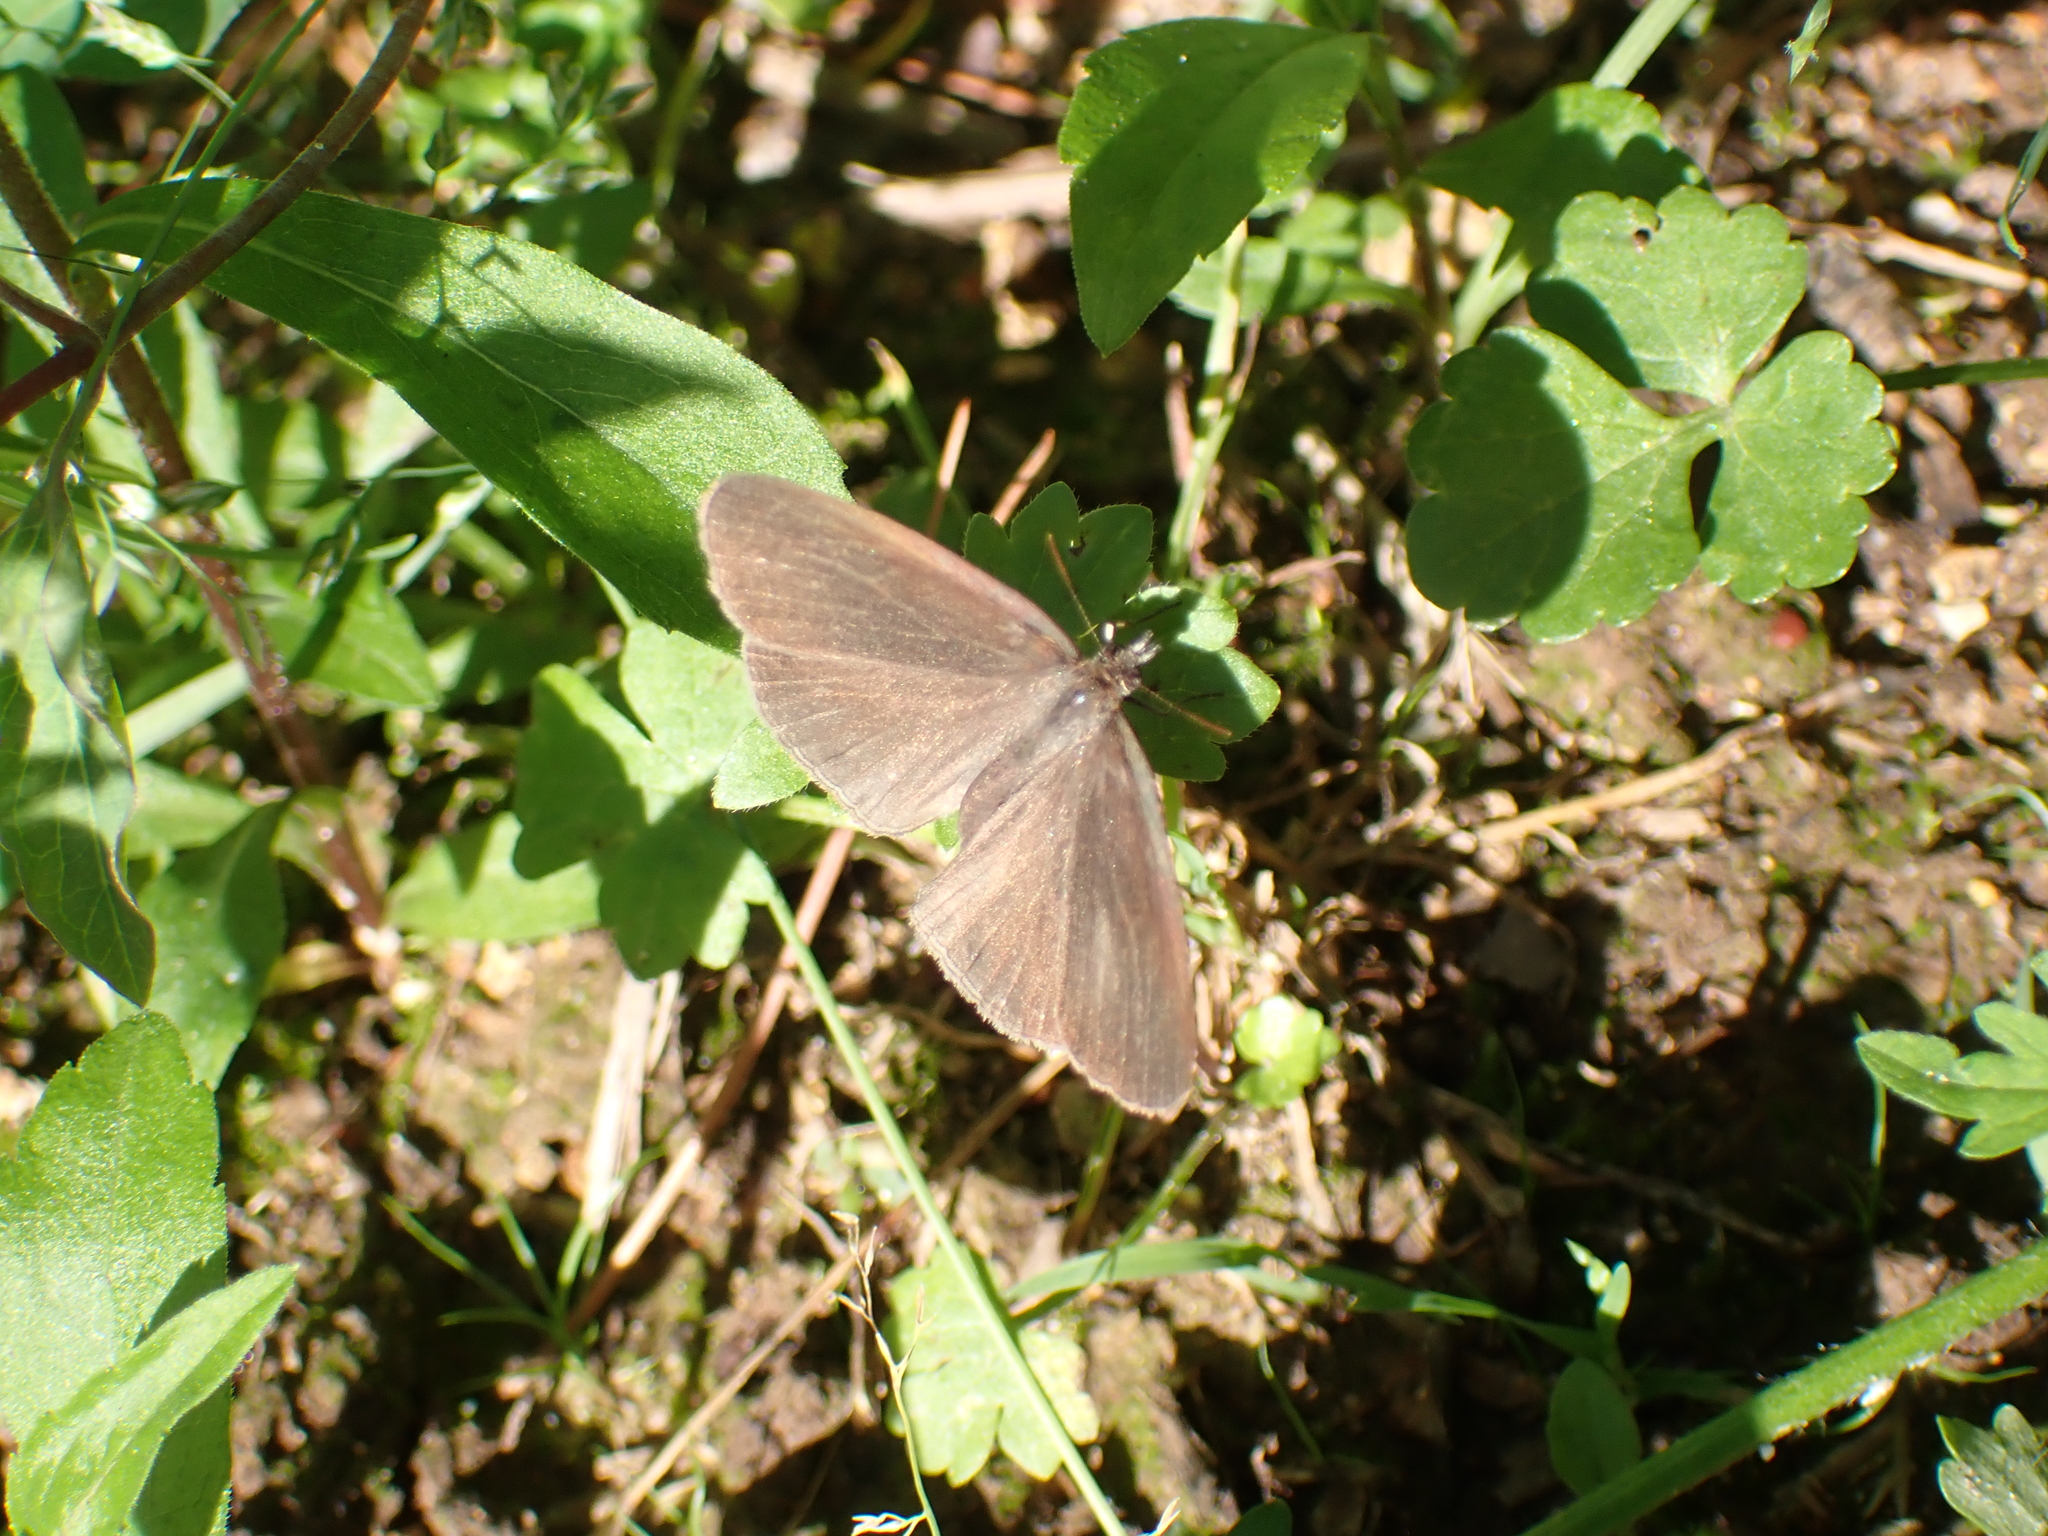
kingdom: Animalia
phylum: Arthropoda
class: Insecta
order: Lepidoptera
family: Nymphalidae
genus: Hermeuptychia
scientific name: Hermeuptychia hermes
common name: Hermes satyr
